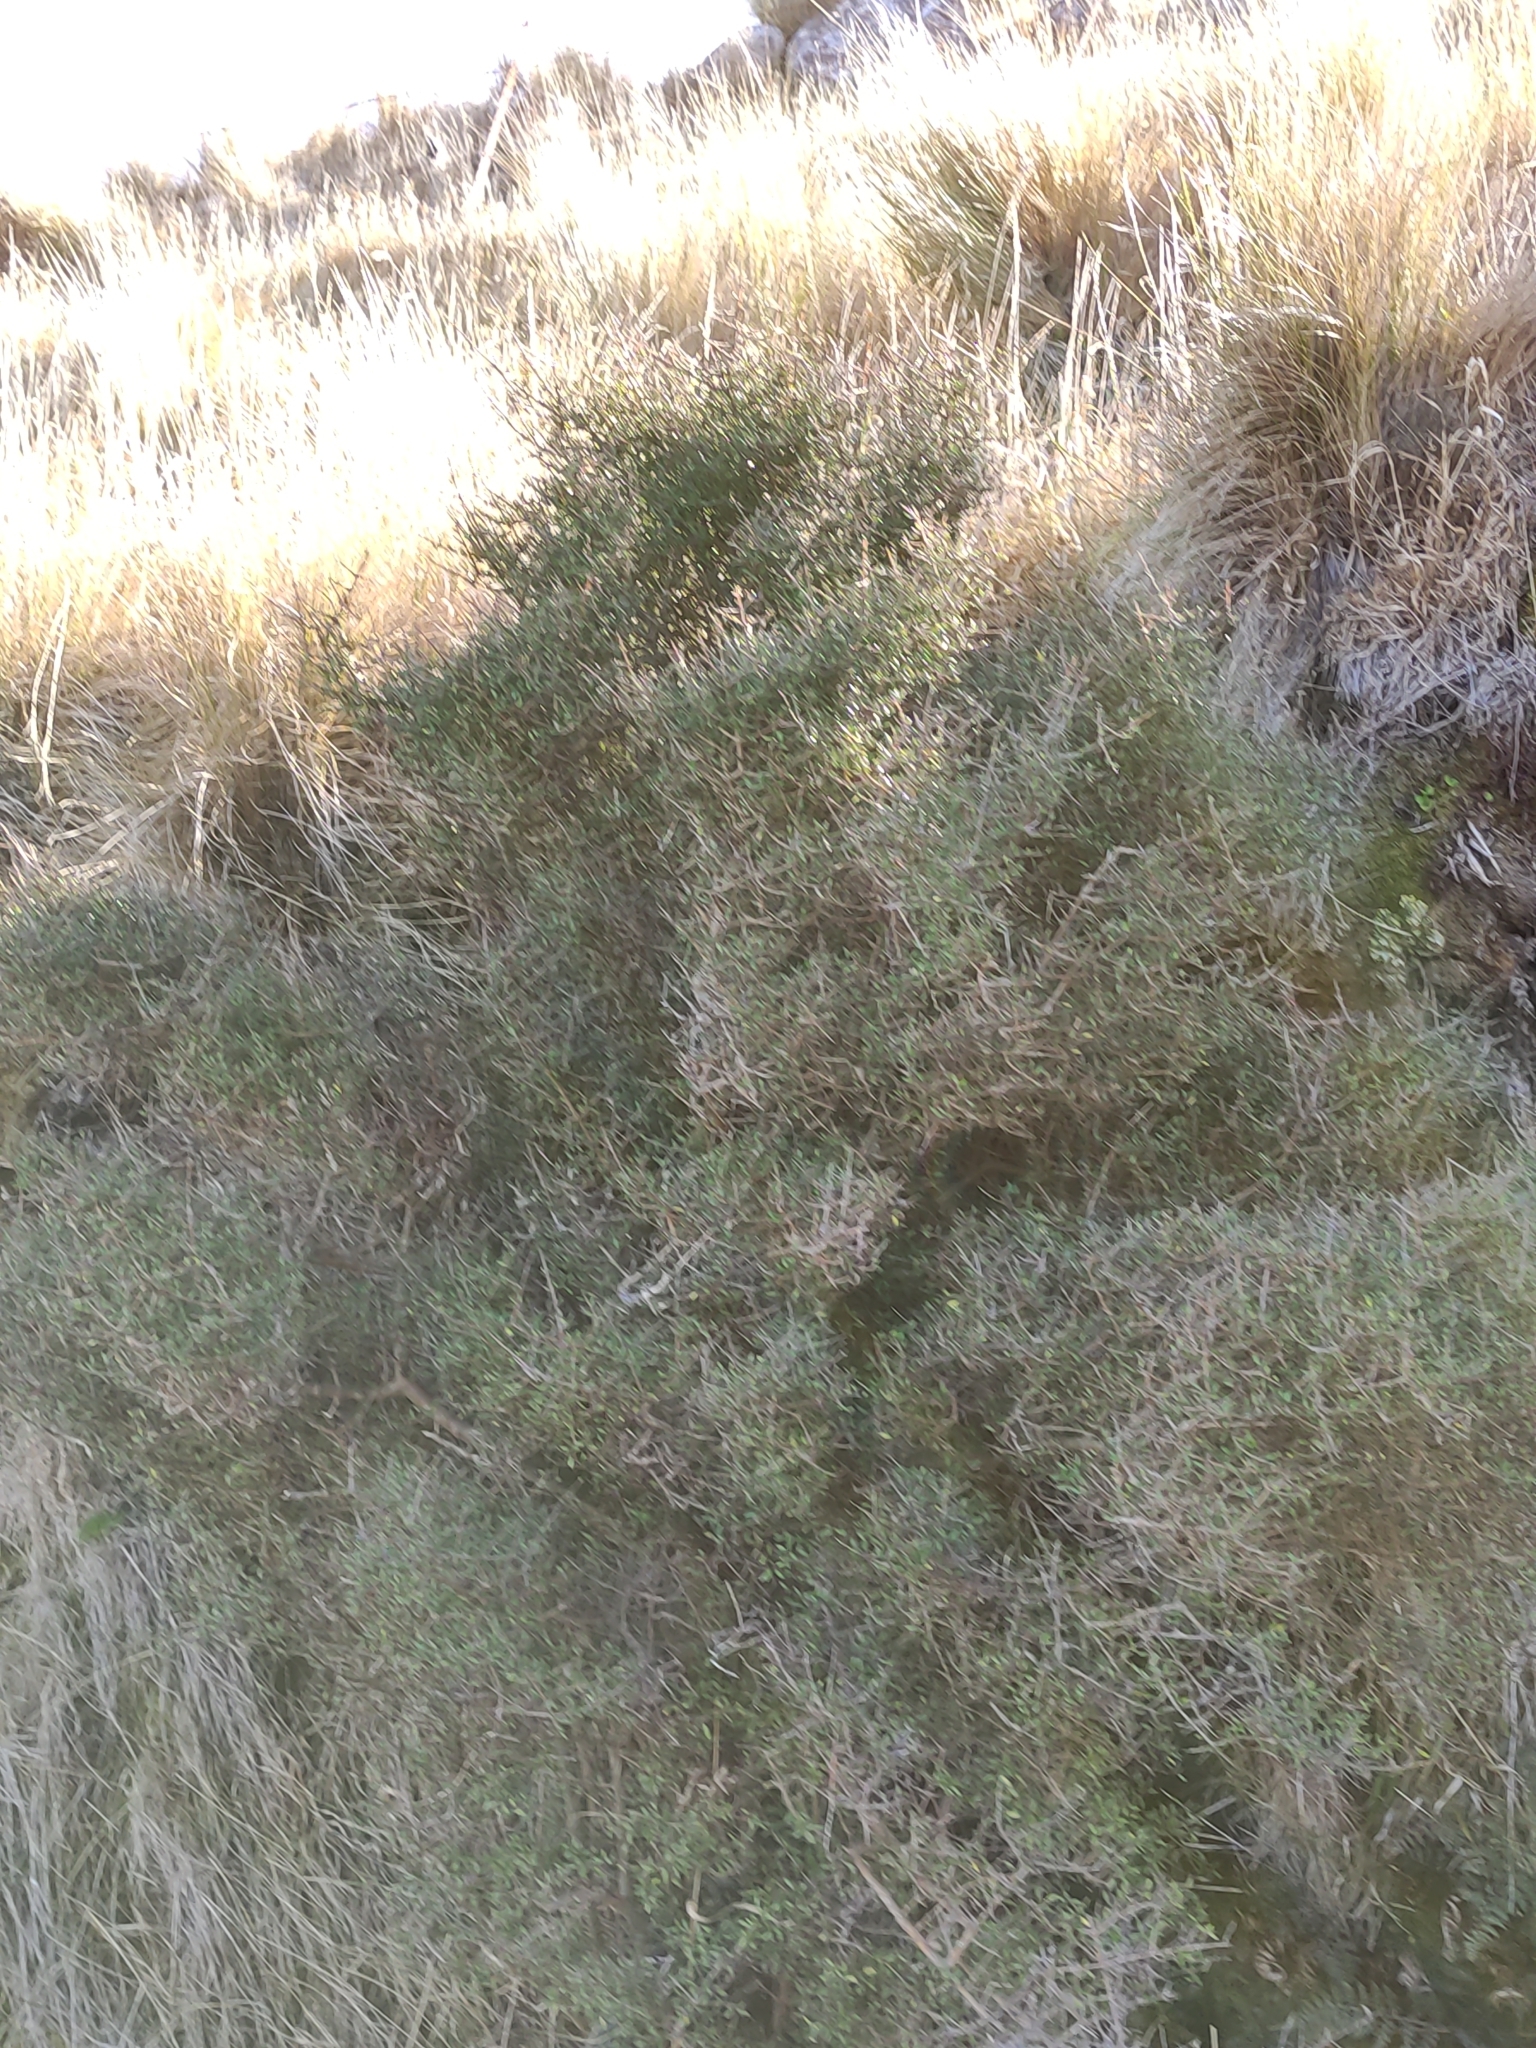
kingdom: Plantae
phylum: Tracheophyta
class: Magnoliopsida
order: Gentianales
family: Rubiaceae
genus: Coprosma
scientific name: Coprosma propinqua
